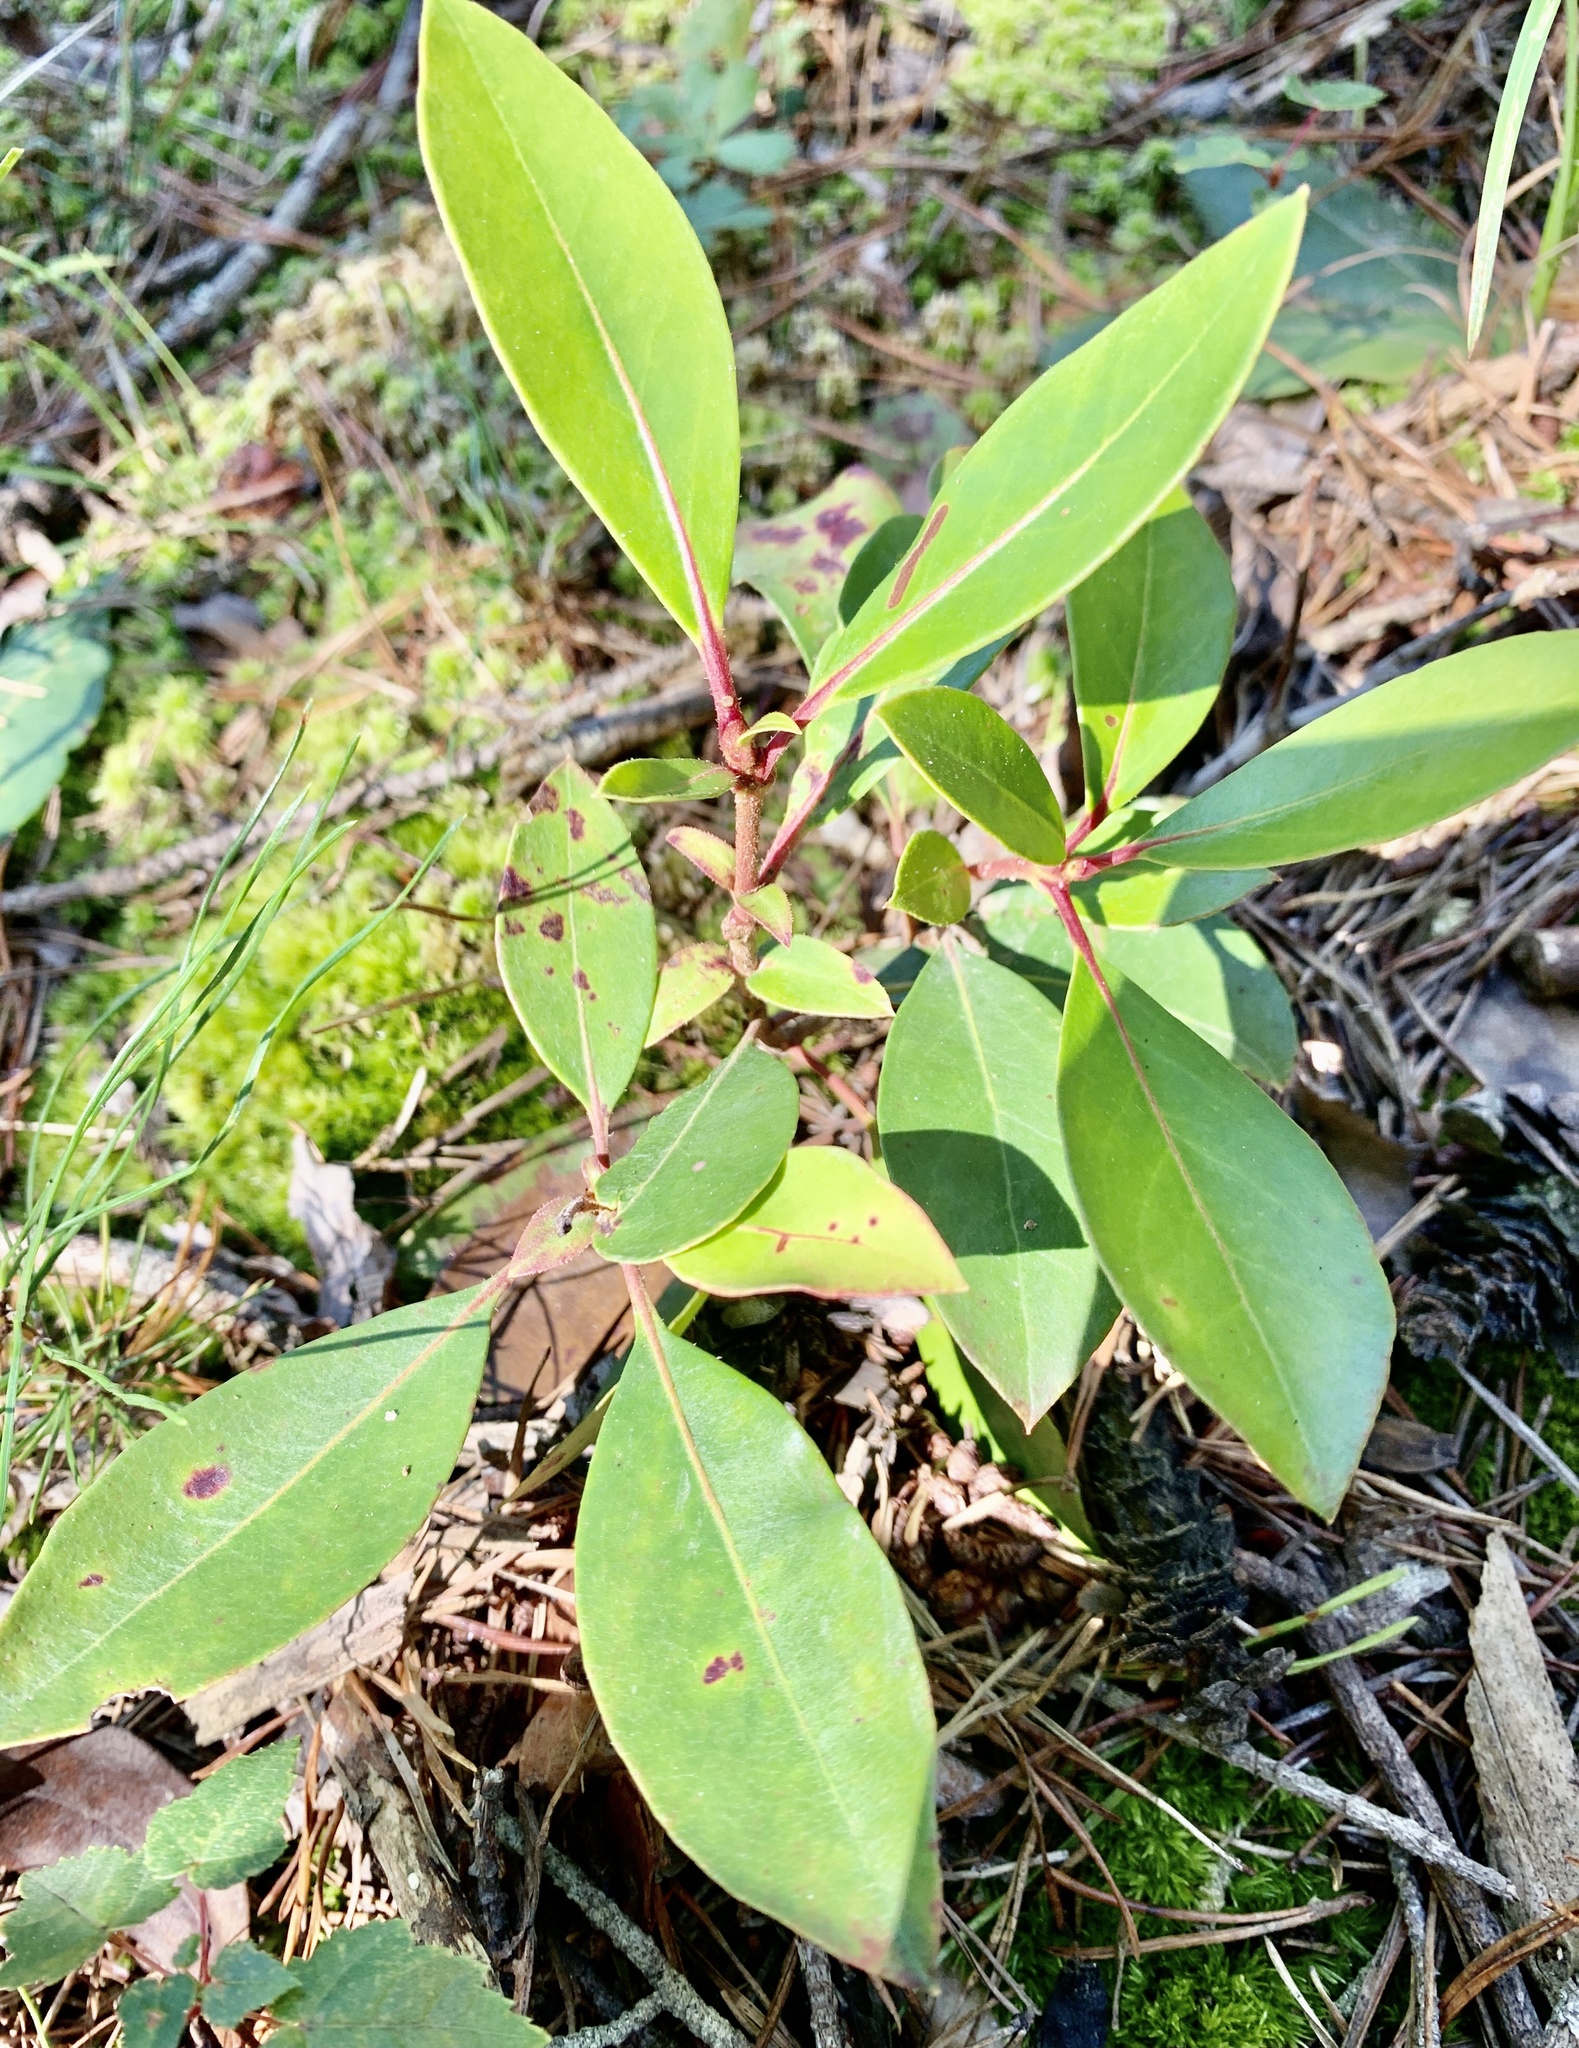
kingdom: Plantae
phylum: Tracheophyta
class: Magnoliopsida
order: Ericales
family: Ericaceae
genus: Kalmia
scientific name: Kalmia latifolia
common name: Mountain-laurel
